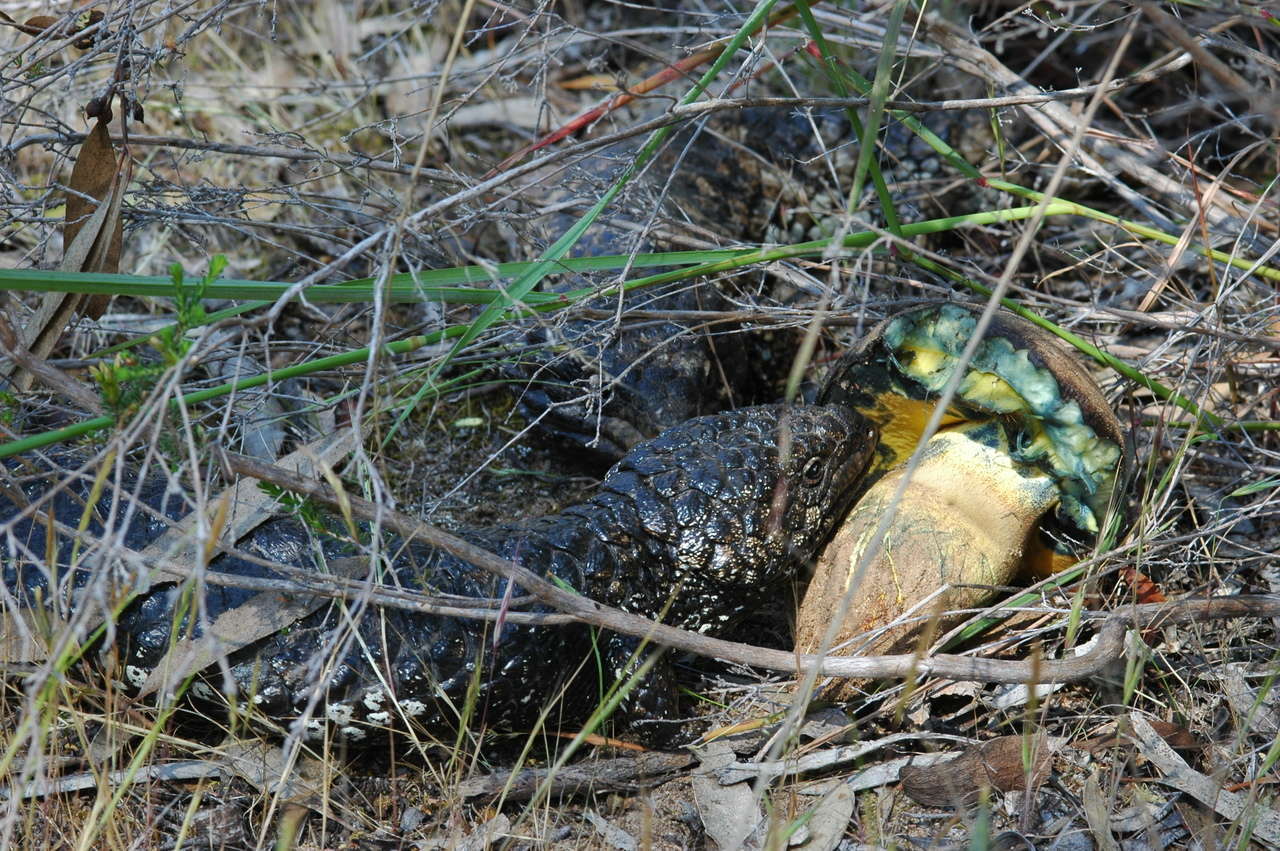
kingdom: Animalia
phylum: Chordata
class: Squamata
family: Scincidae
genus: Tiliqua
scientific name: Tiliqua rugosa
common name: Pinecone lizard
